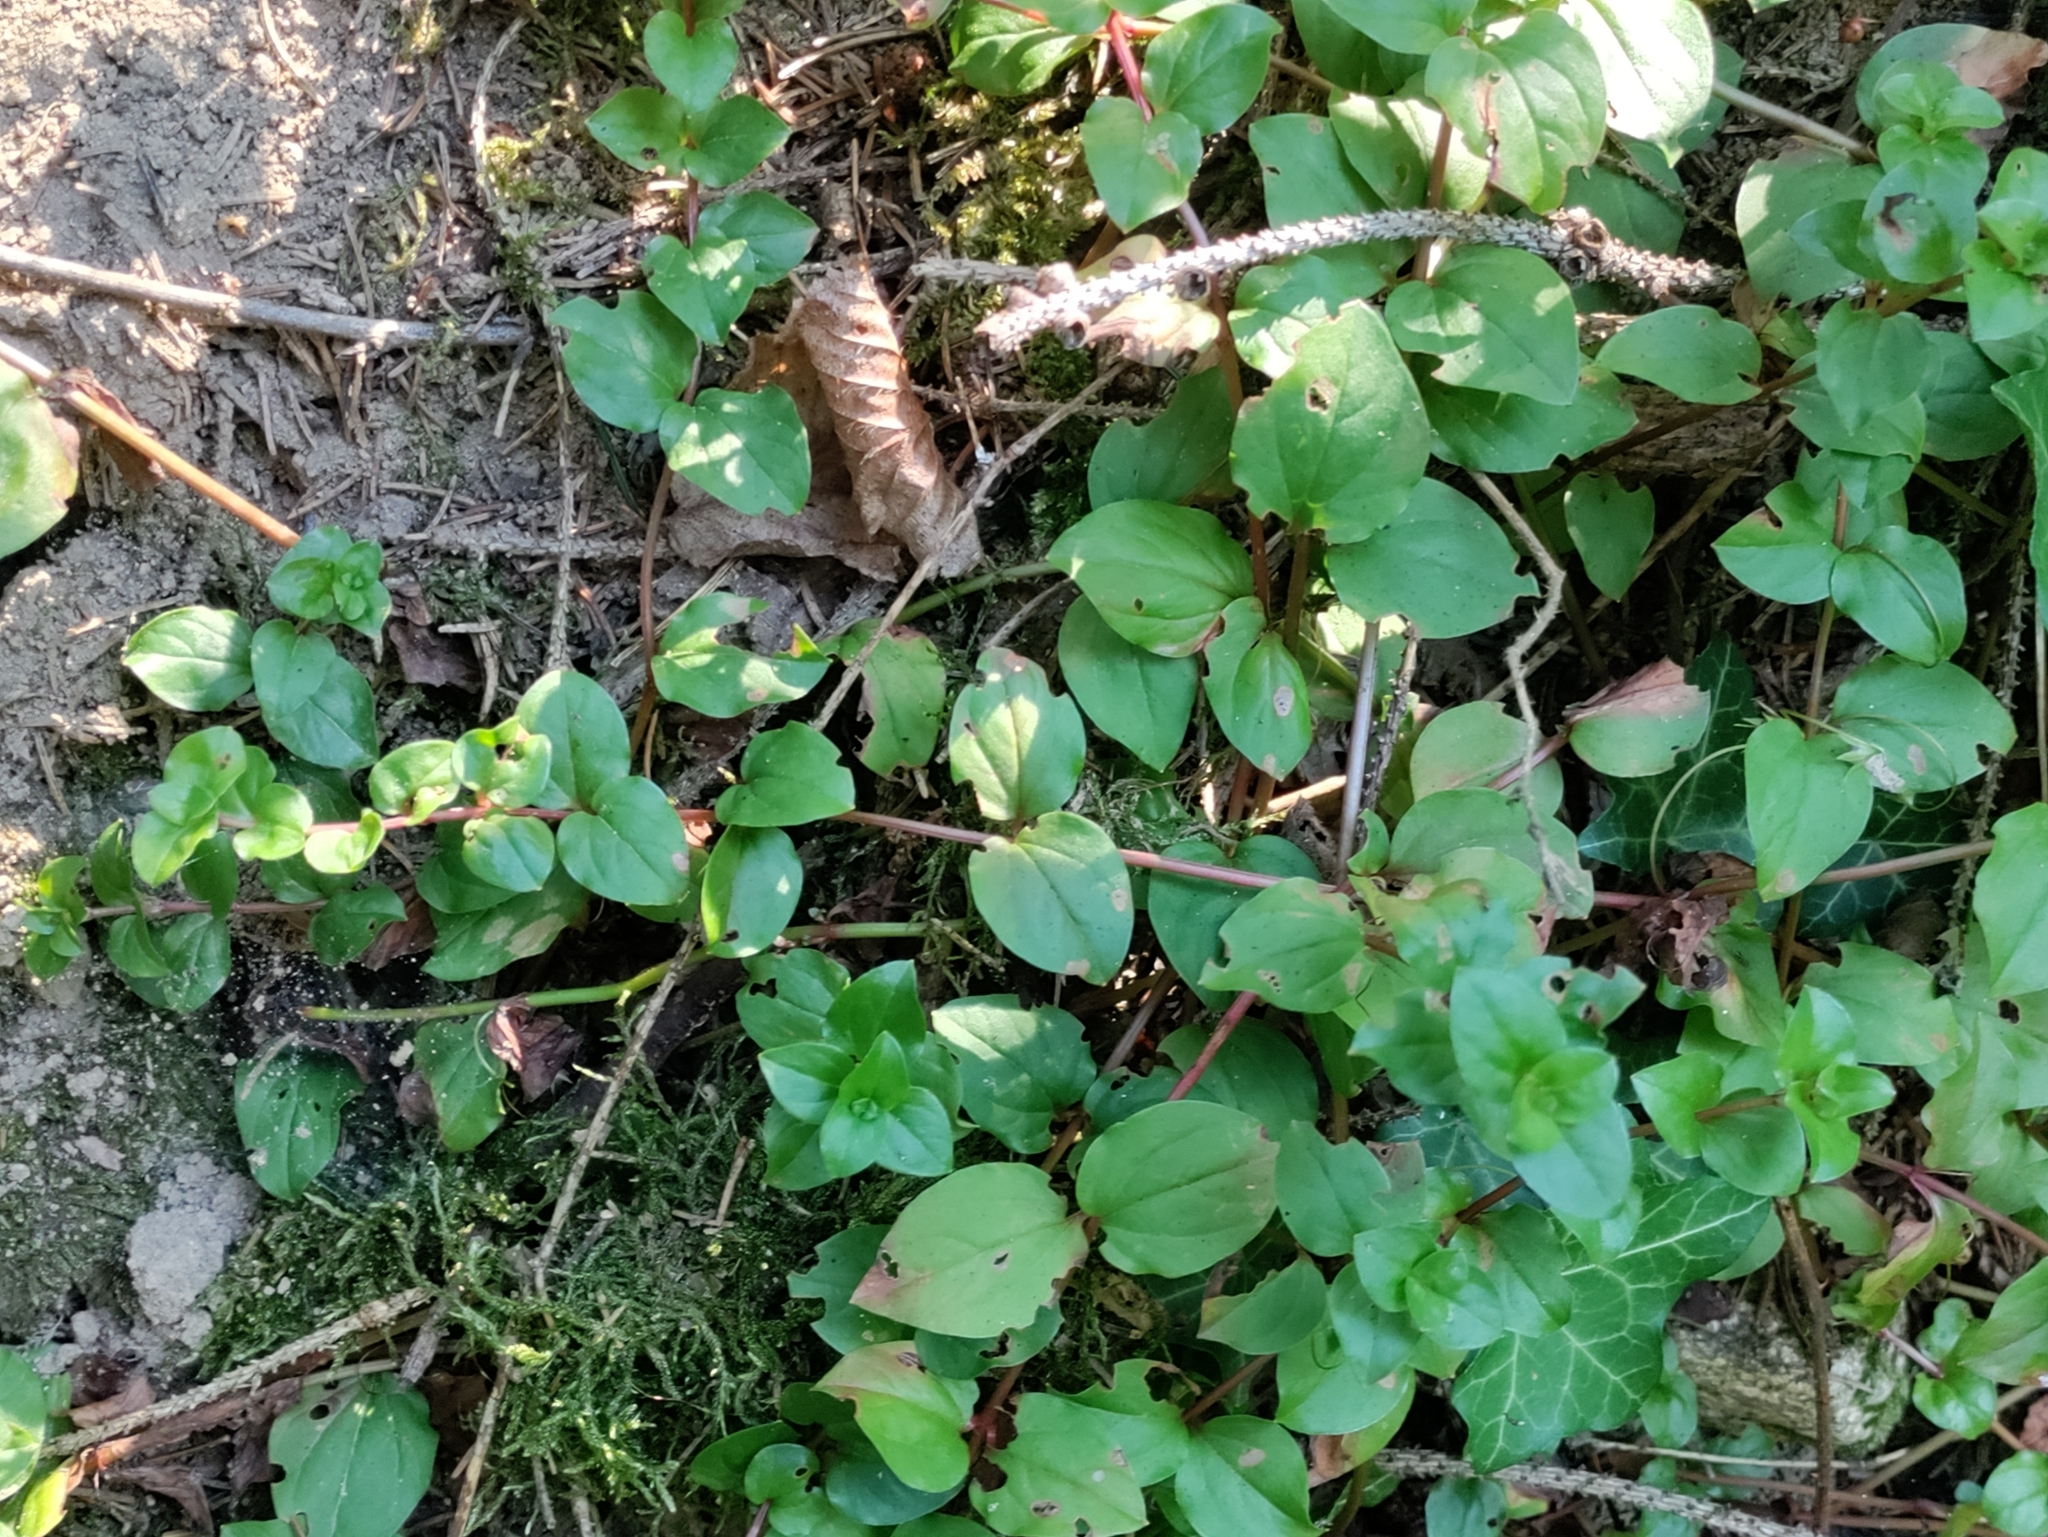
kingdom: Plantae
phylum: Tracheophyta
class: Magnoliopsida
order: Ericales
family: Primulaceae
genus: Lysimachia
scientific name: Lysimachia nemorum
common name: Yellow pimpernel
